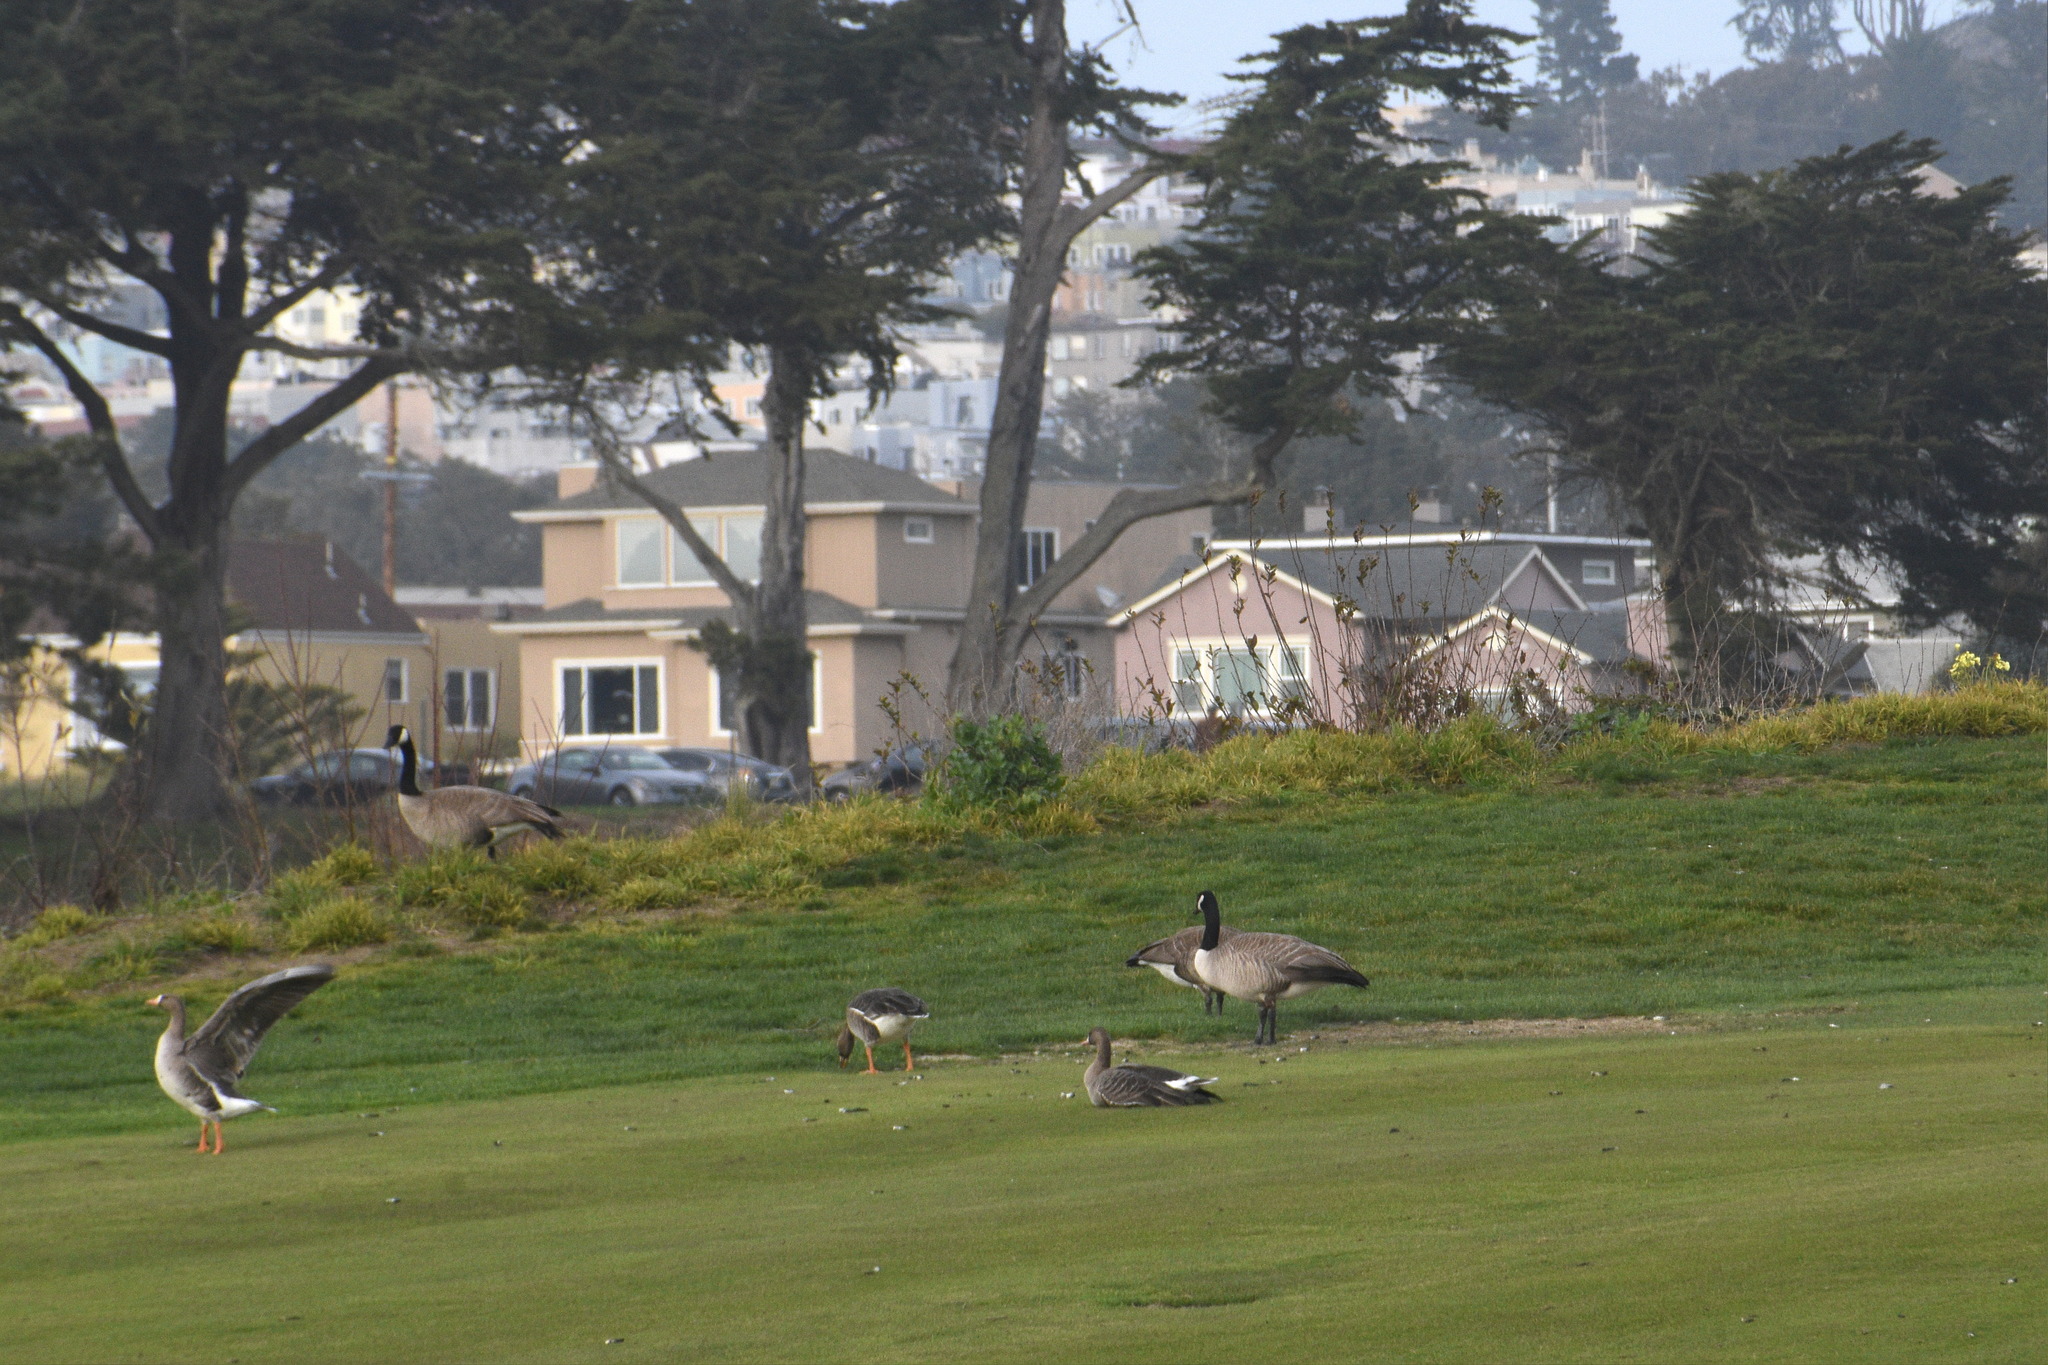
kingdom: Animalia
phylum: Chordata
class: Aves
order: Anseriformes
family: Anatidae
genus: Anser
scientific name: Anser albifrons
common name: Greater white-fronted goose
